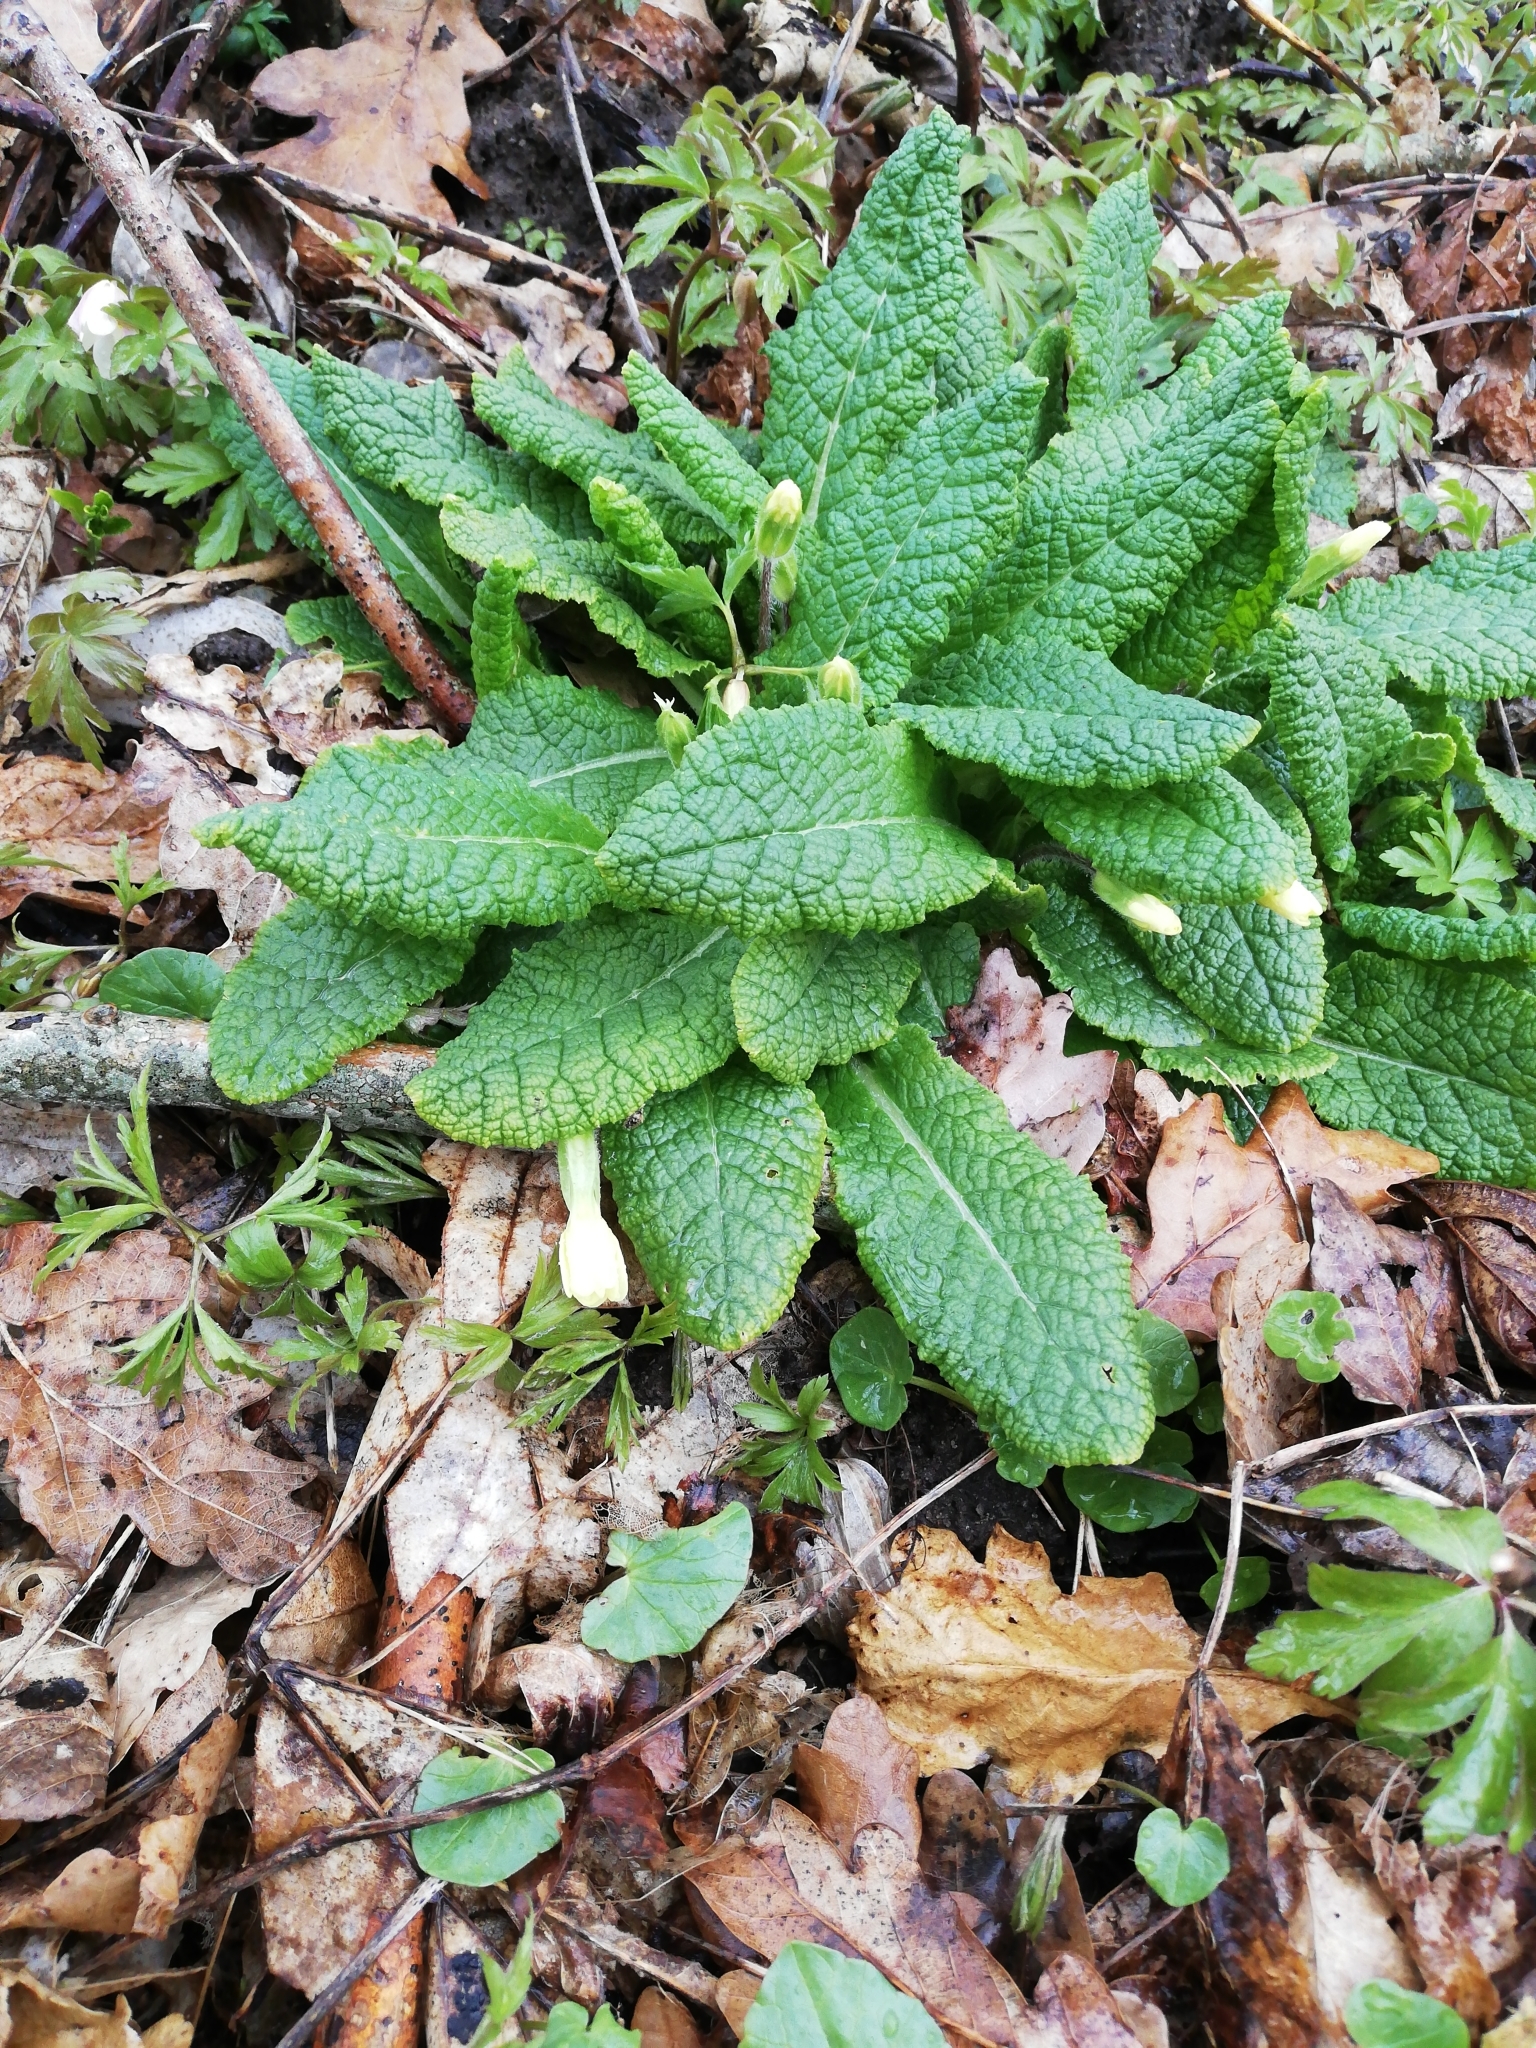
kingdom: Plantae
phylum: Tracheophyta
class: Magnoliopsida
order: Ericales
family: Primulaceae
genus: Primula
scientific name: Primula vulgaris
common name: Primrose
